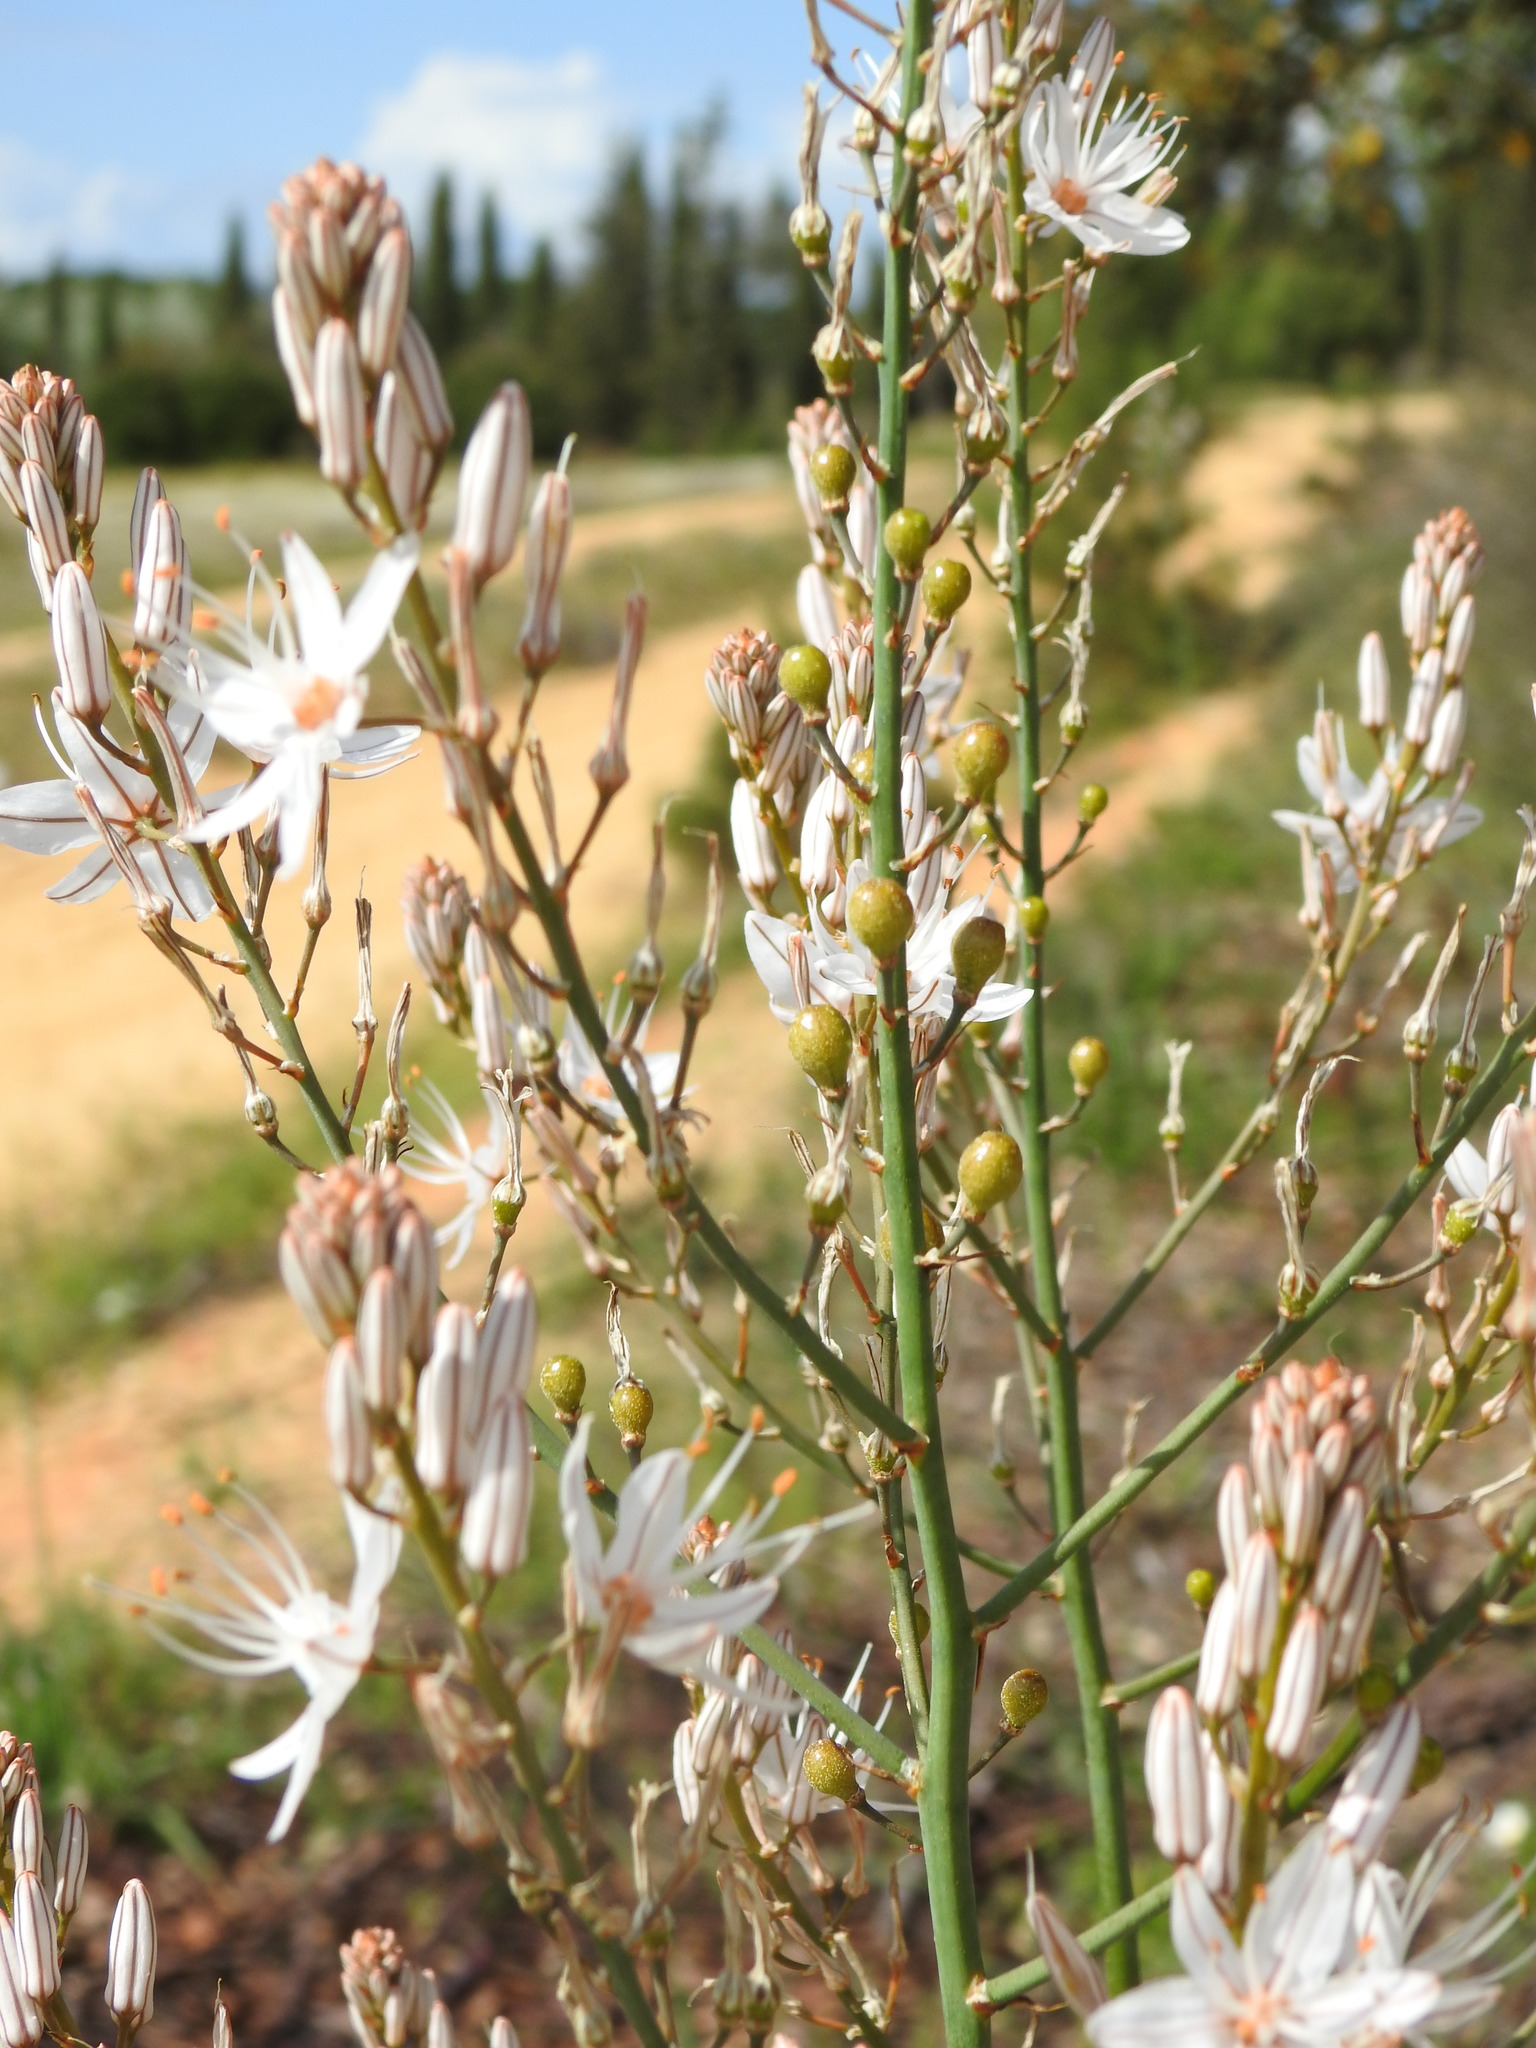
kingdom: Plantae
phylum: Tracheophyta
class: Liliopsida
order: Asparagales
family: Asphodelaceae
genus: Asphodelus
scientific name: Asphodelus serotinus
